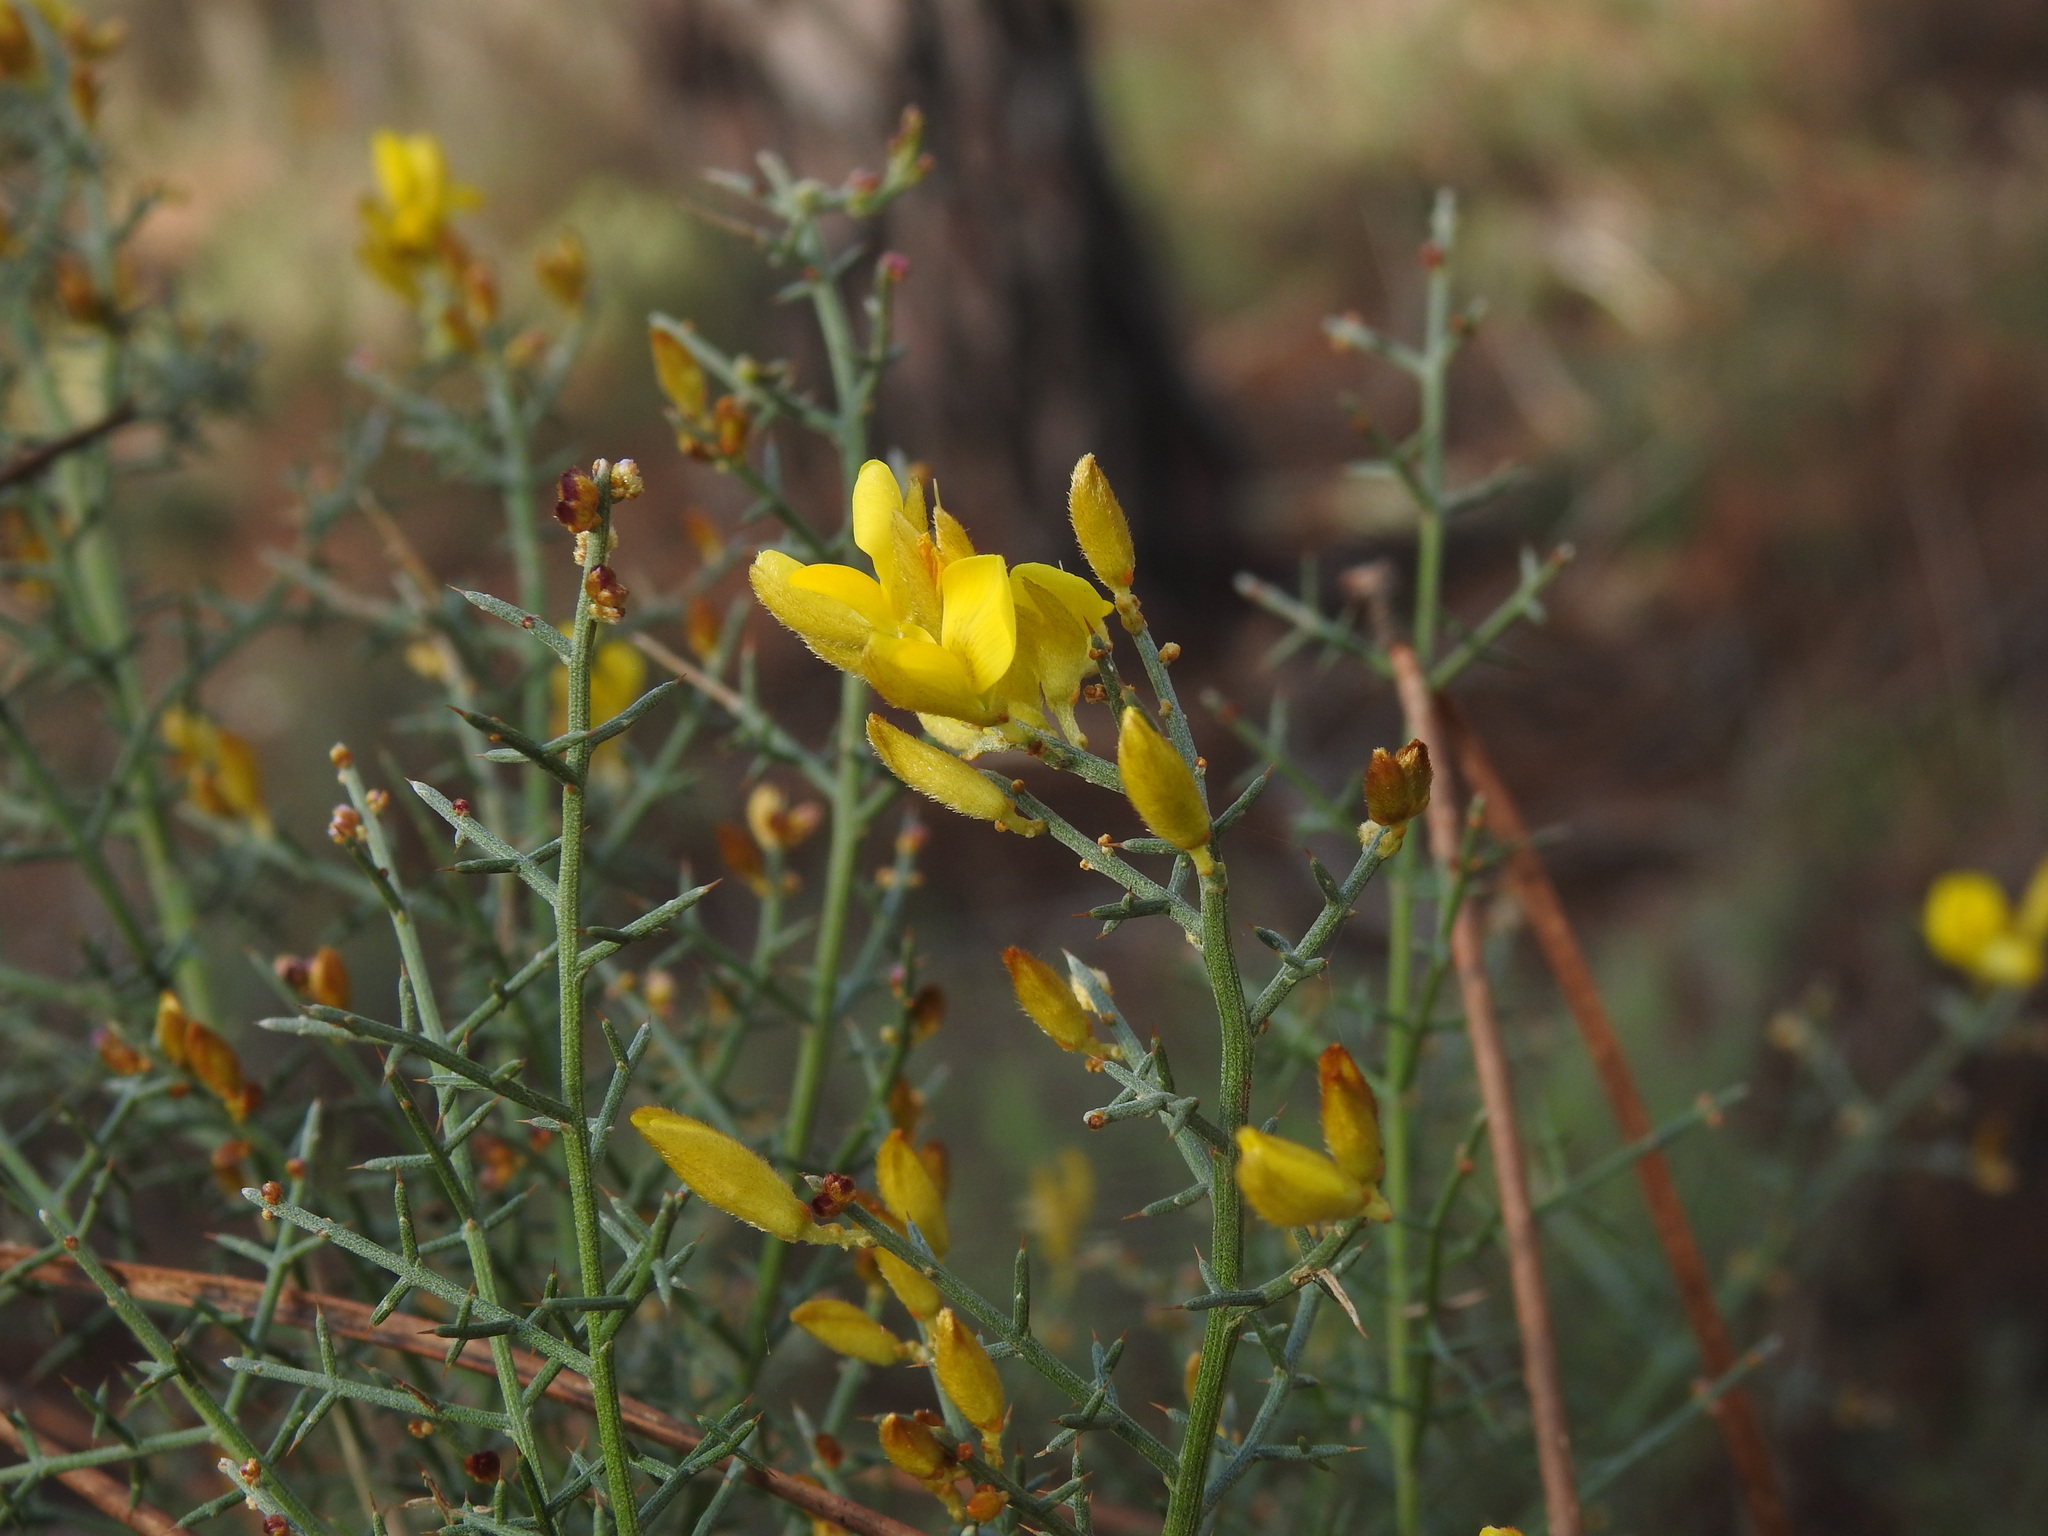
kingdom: Plantae
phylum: Tracheophyta
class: Magnoliopsida
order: Fabales
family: Fabaceae
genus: Stauracanthus
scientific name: Stauracanthus genistoides
